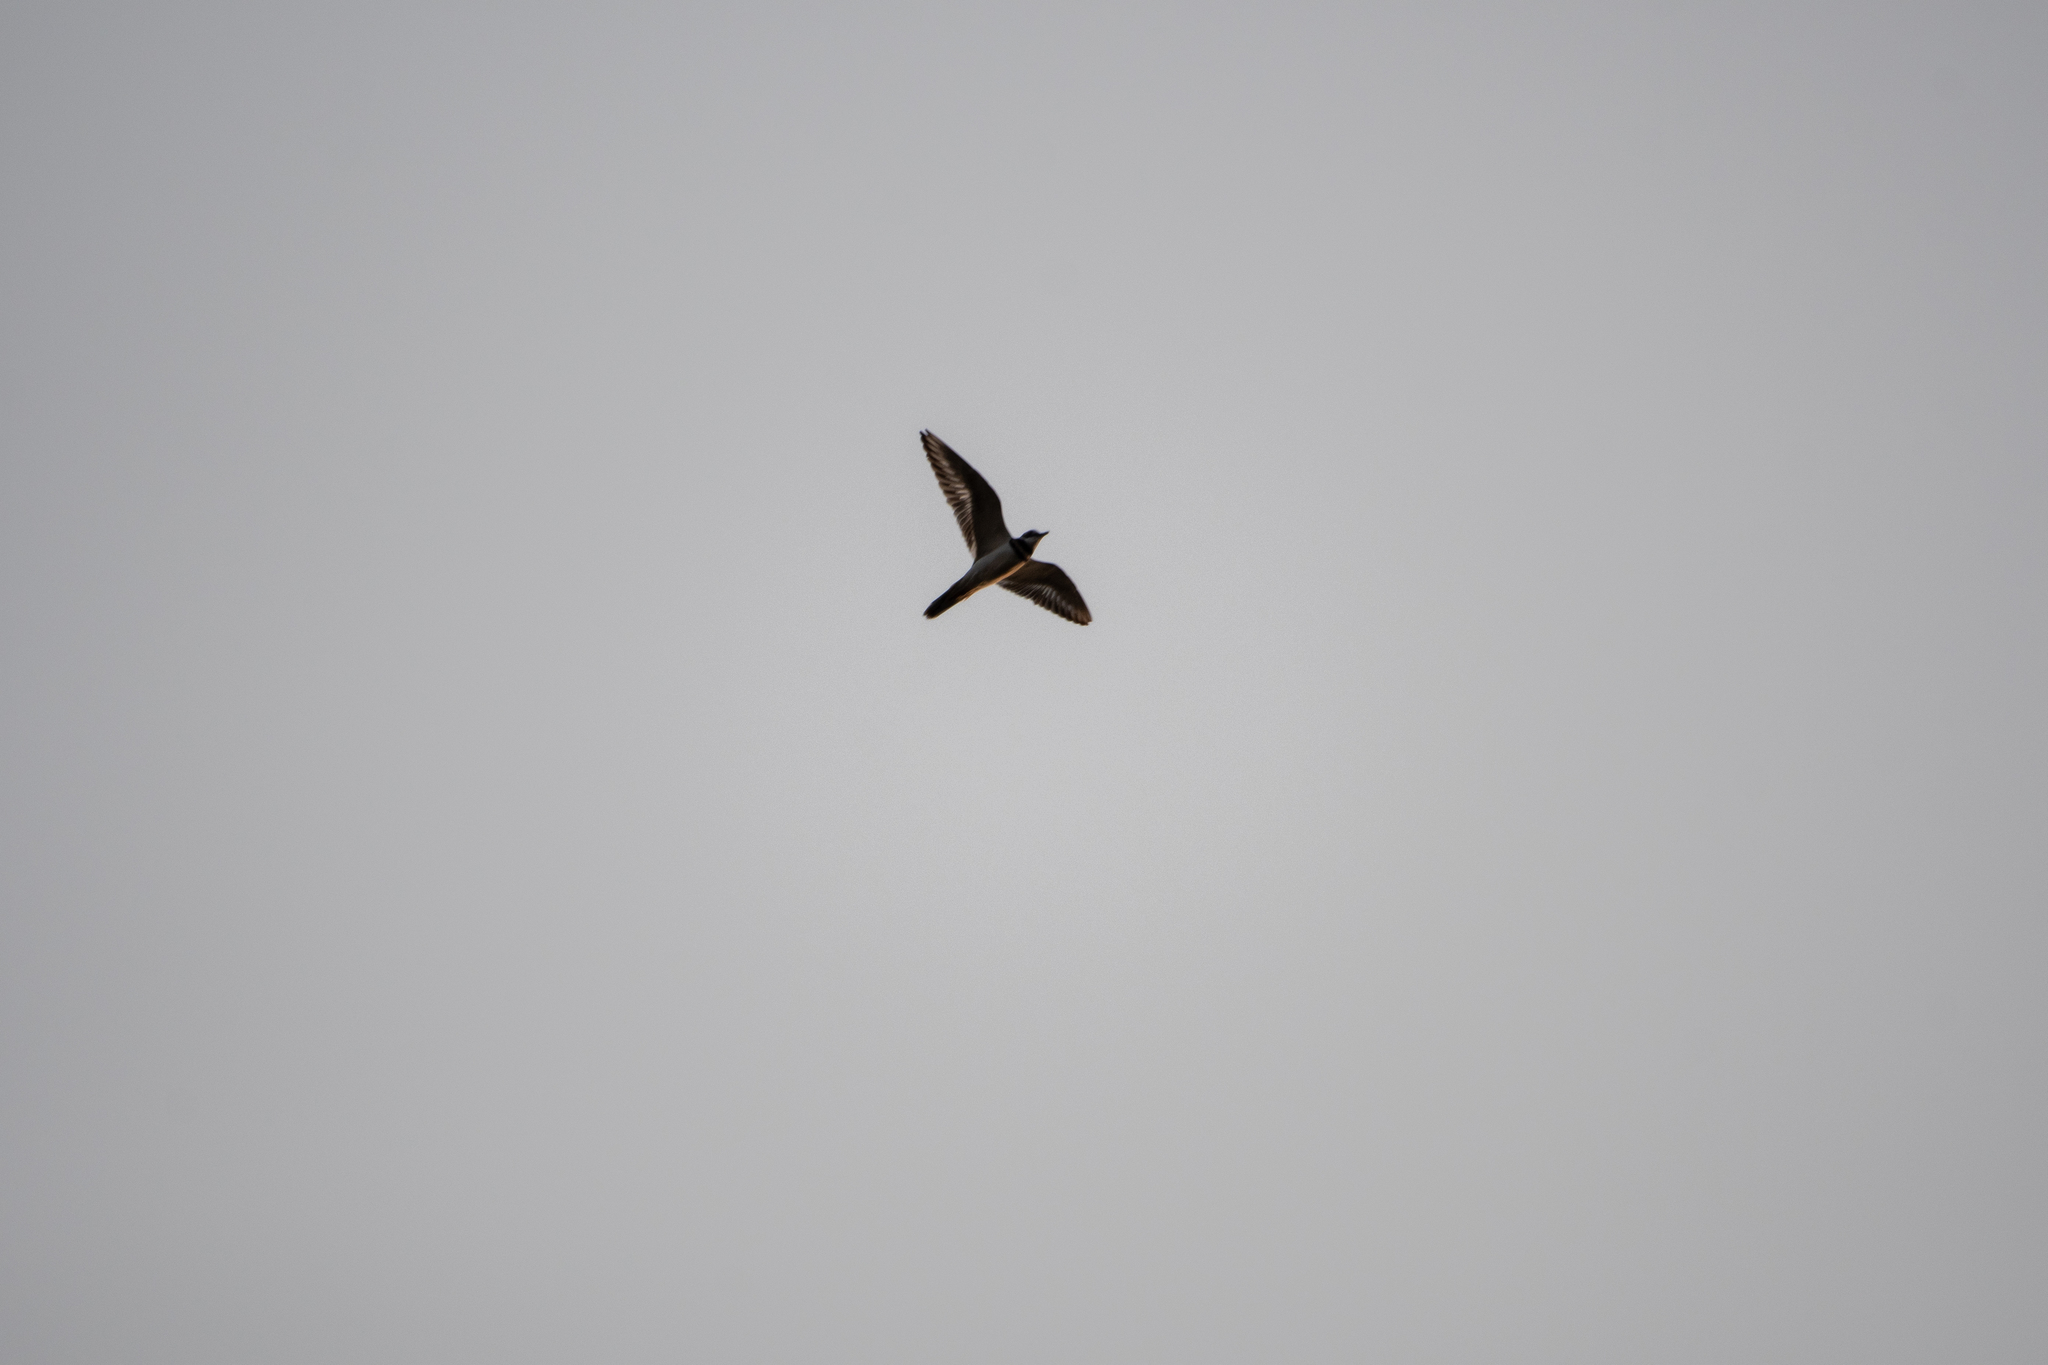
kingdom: Animalia
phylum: Chordata
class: Aves
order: Charadriiformes
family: Charadriidae
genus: Charadrius
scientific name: Charadrius vociferus
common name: Killdeer
